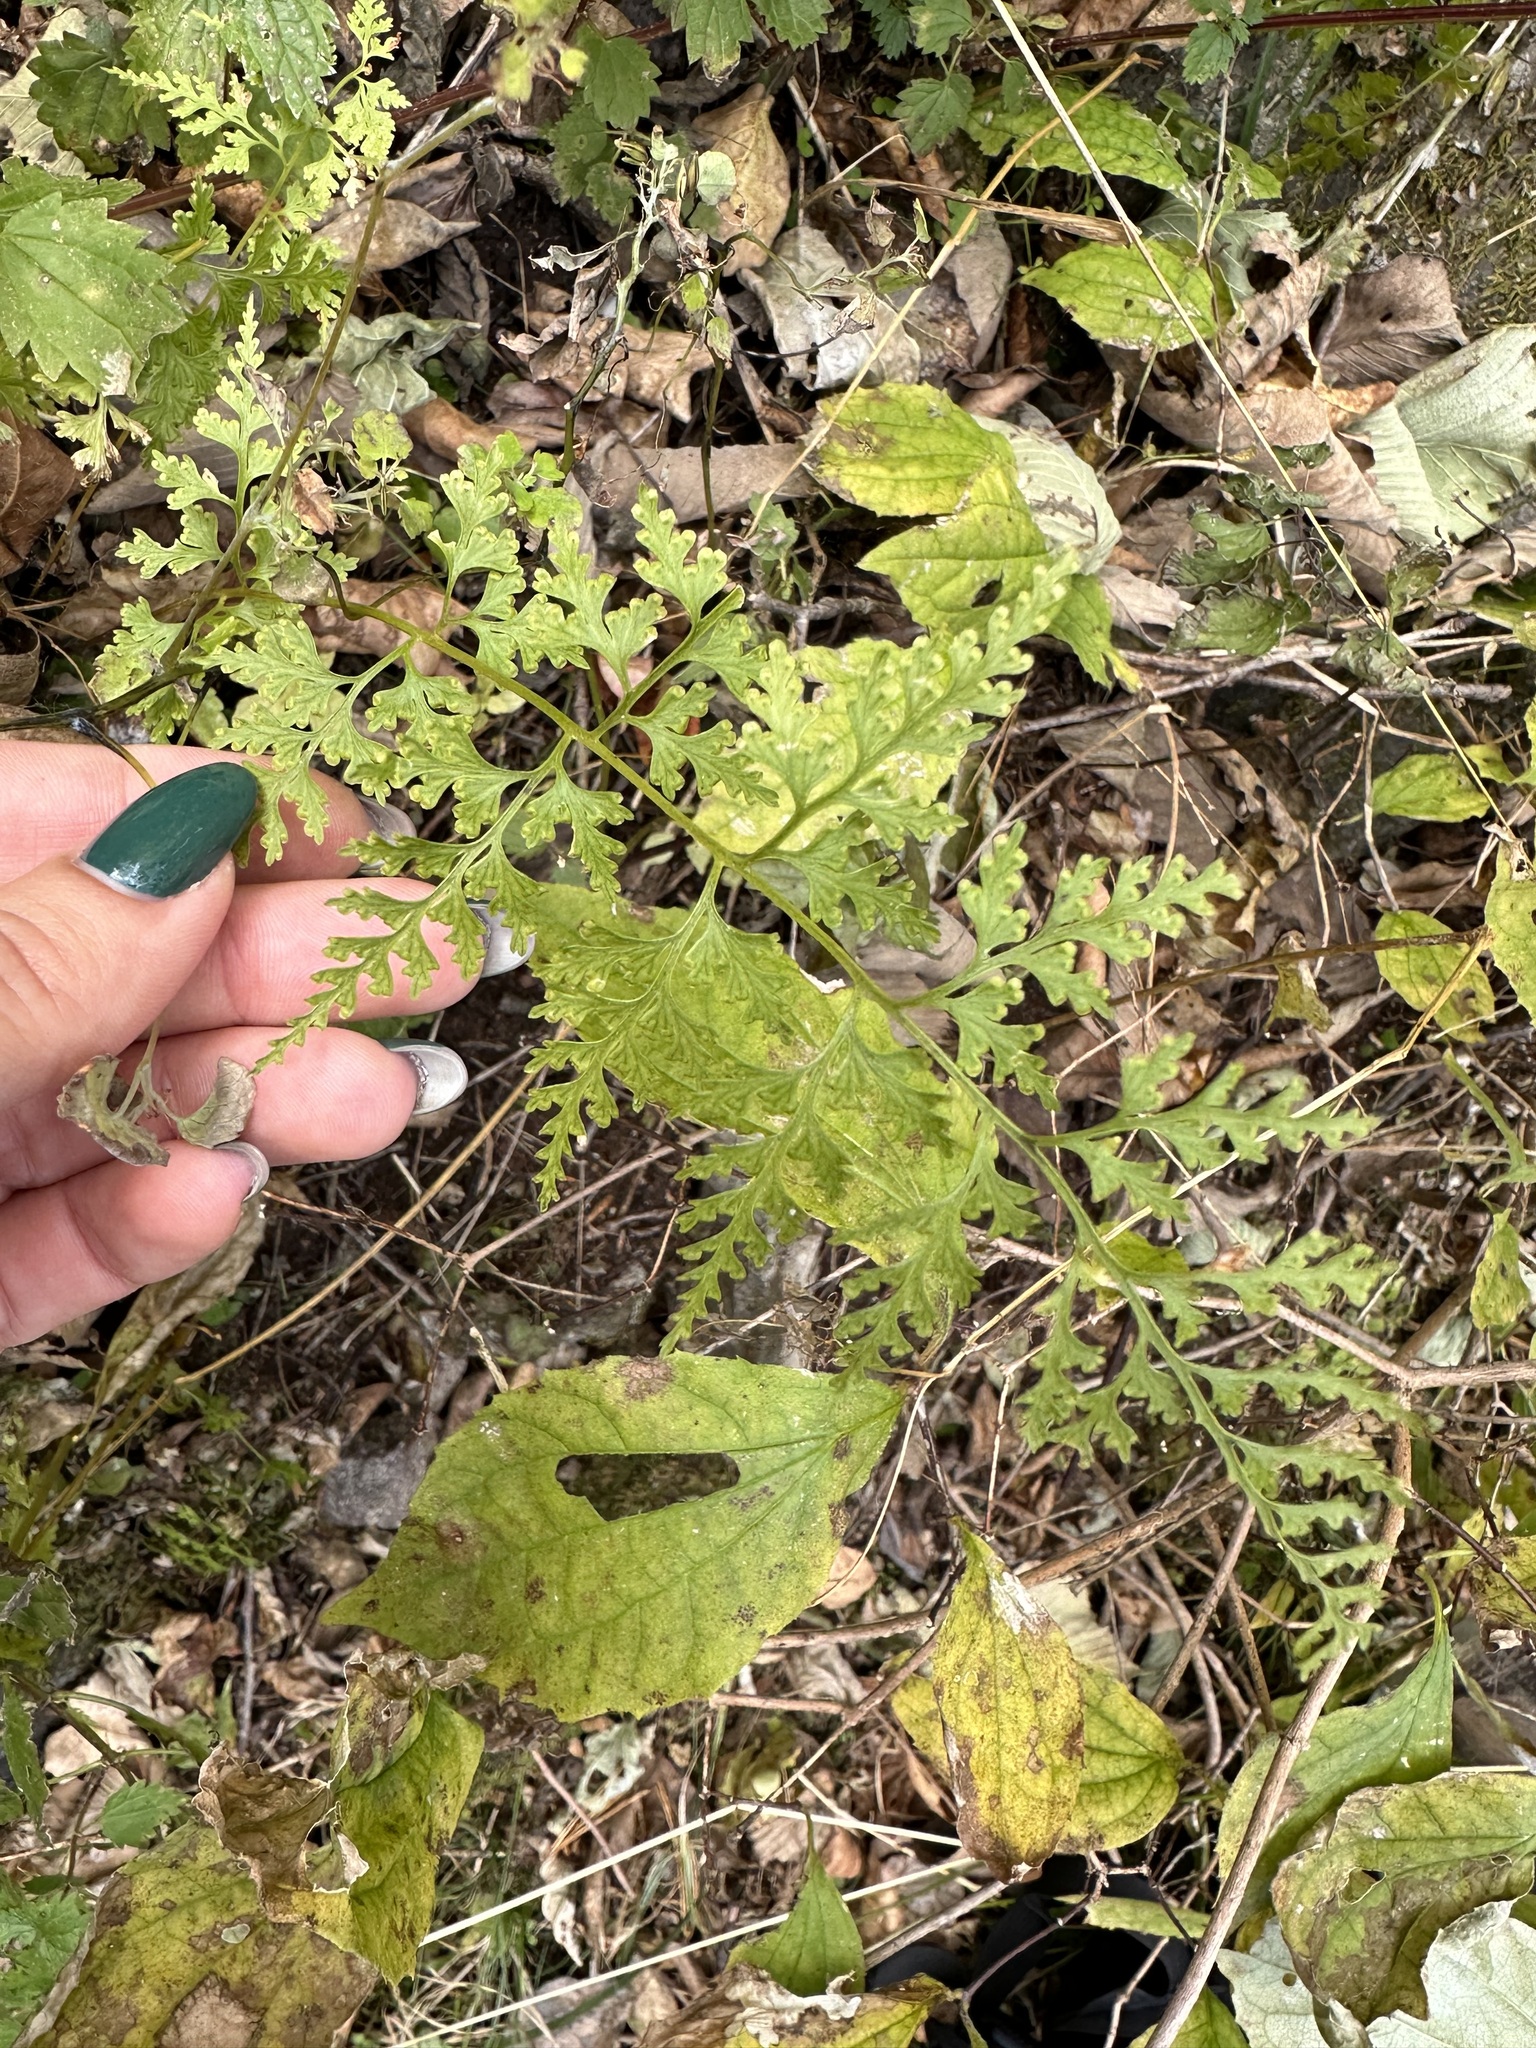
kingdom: Plantae
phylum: Tracheophyta
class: Polypodiopsida
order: Polypodiales
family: Dennstaedtiaceae
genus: Dennstaedtia
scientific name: Dennstaedtia wilfordii
